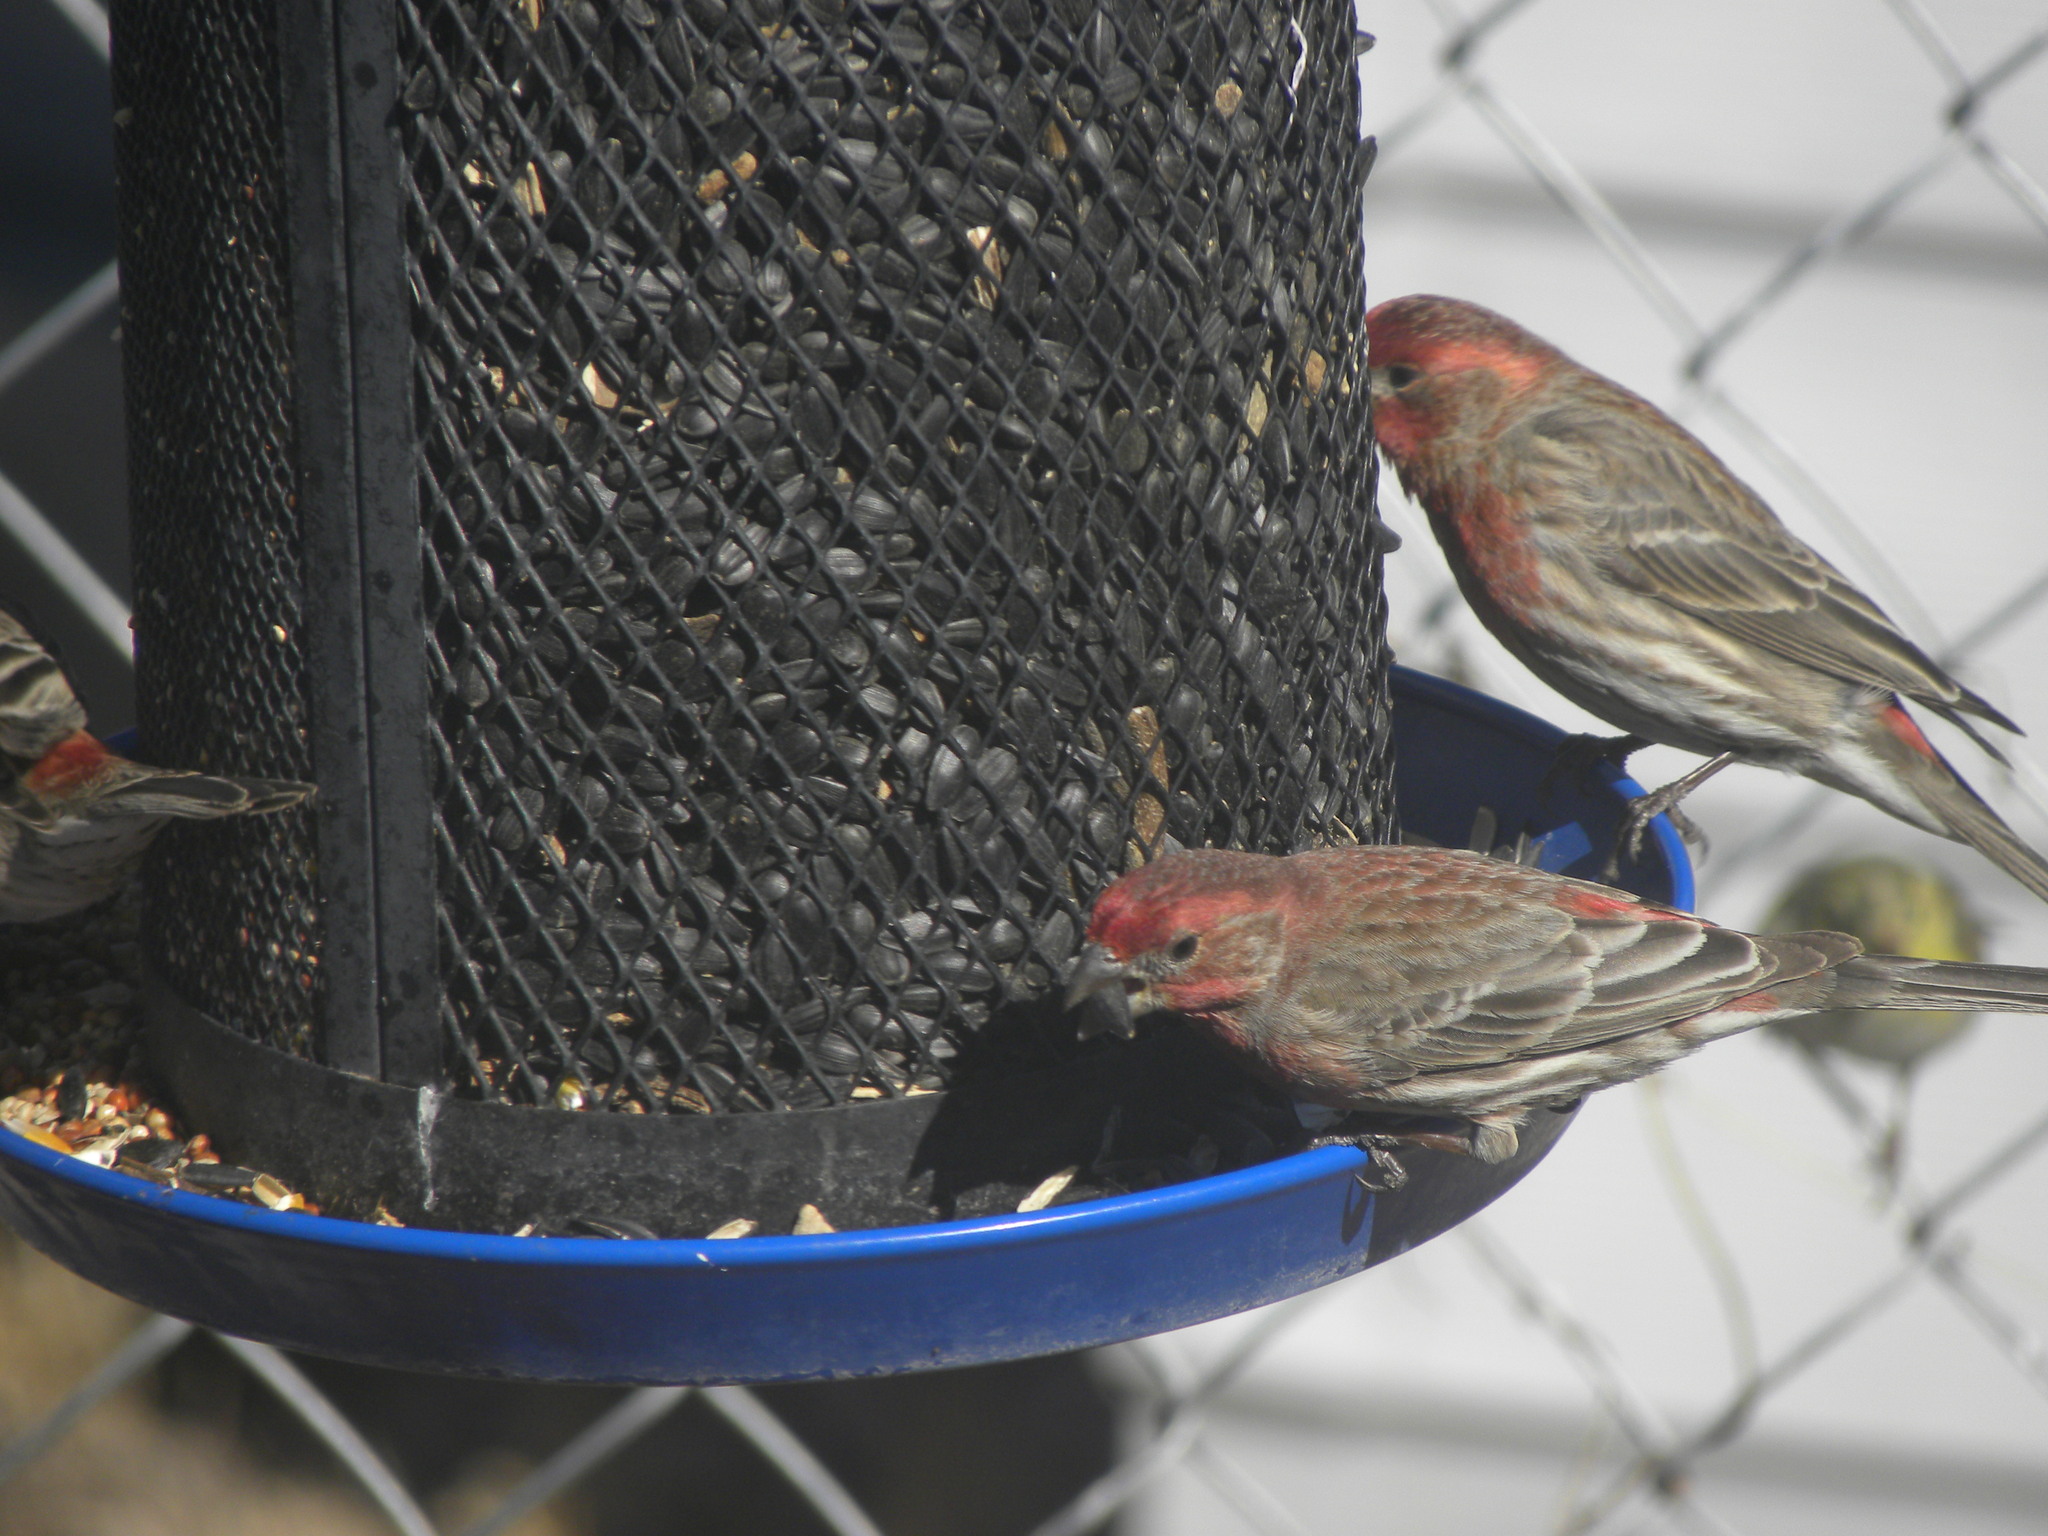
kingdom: Animalia
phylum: Chordata
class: Aves
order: Passeriformes
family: Fringillidae
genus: Haemorhous
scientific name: Haemorhous mexicanus
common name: House finch
